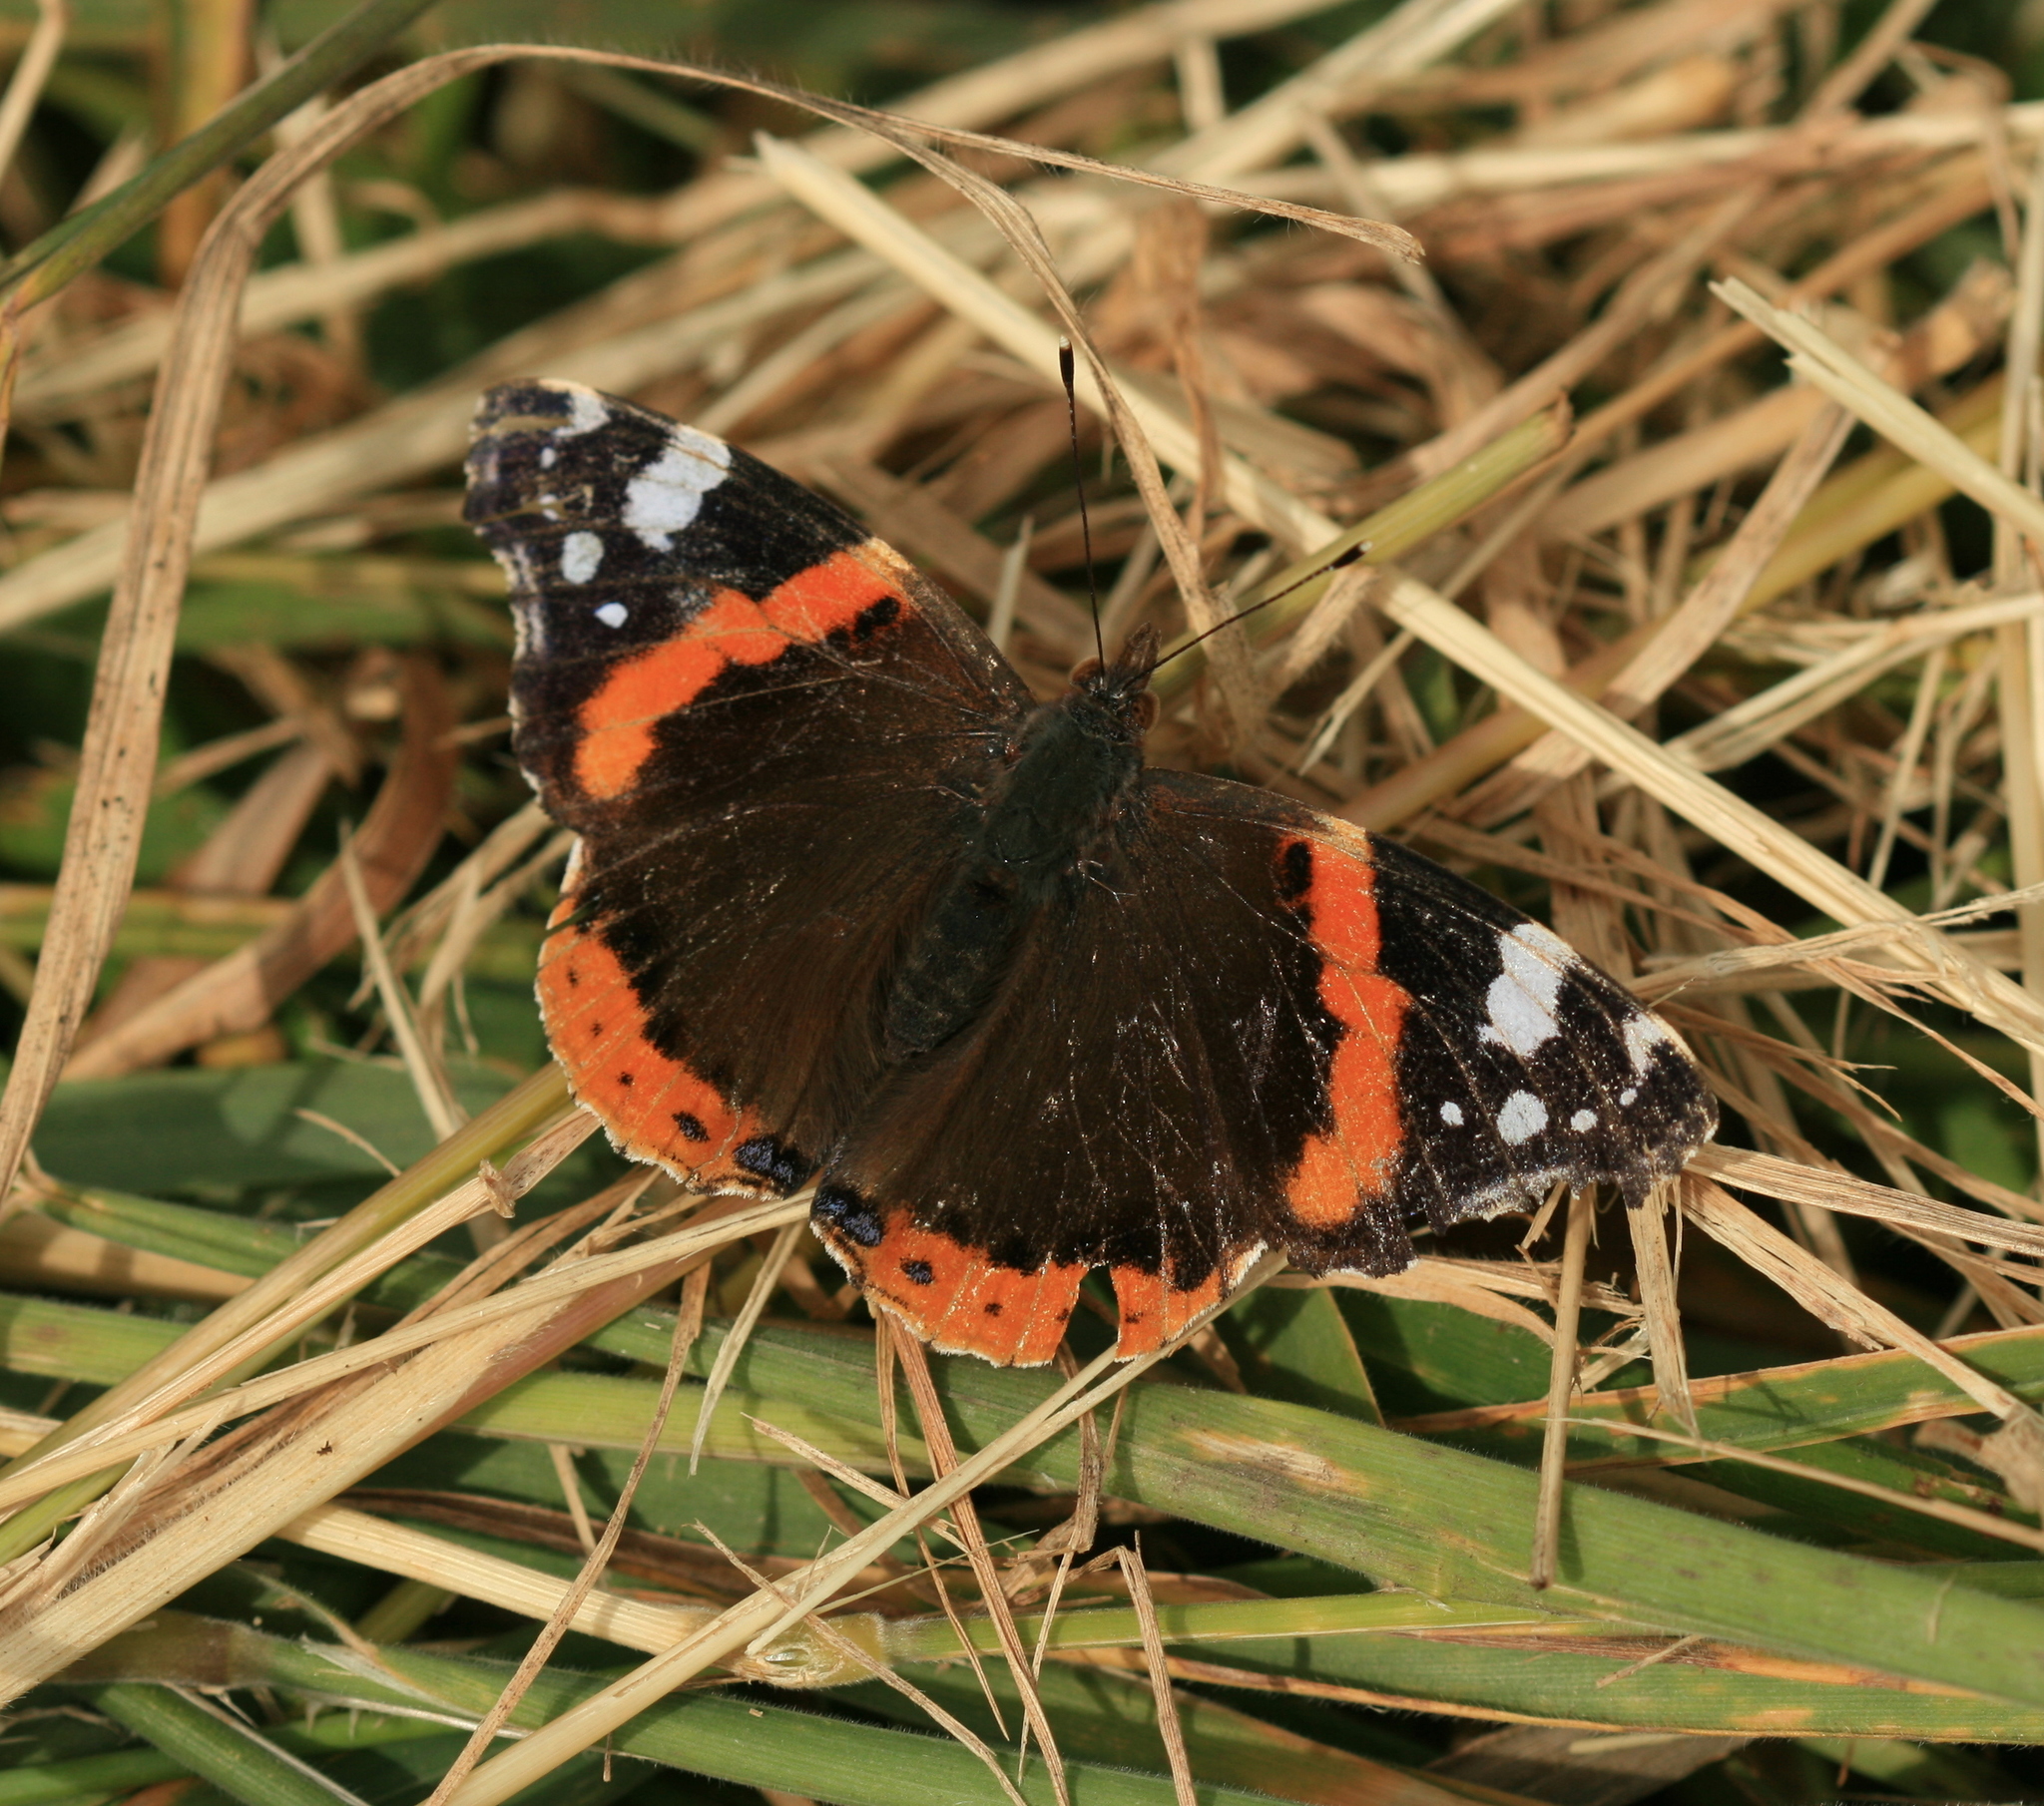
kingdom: Animalia
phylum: Arthropoda
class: Insecta
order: Lepidoptera
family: Nymphalidae
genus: Vanessa
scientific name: Vanessa atalanta
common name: Red admiral
